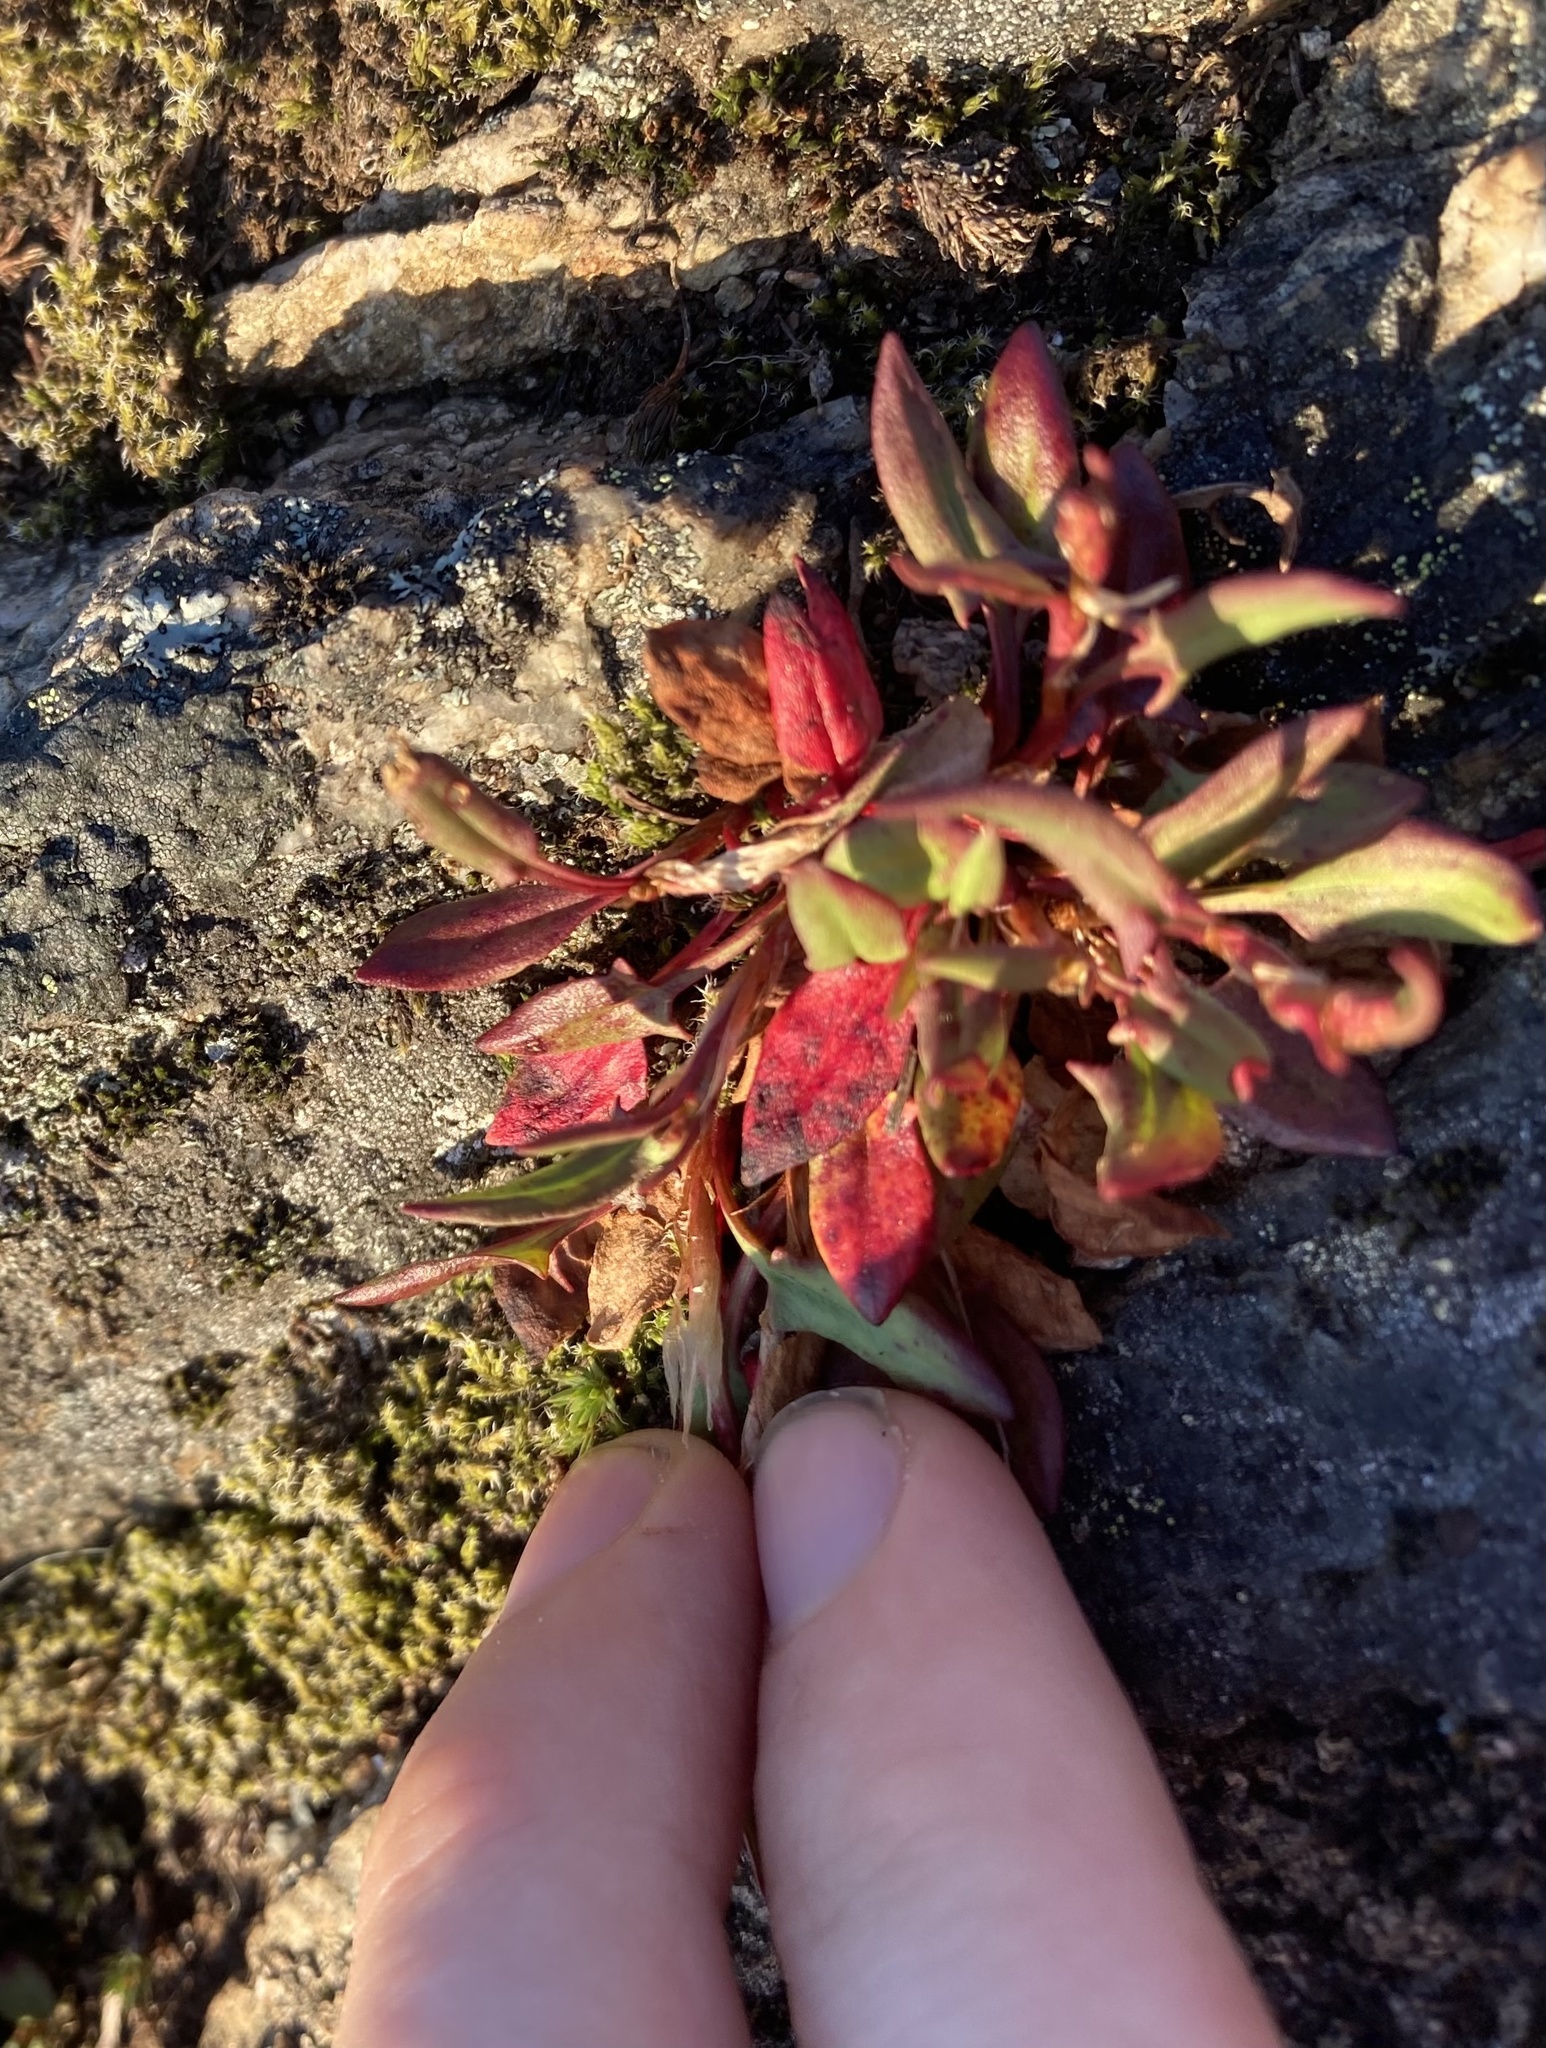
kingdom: Plantae
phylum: Tracheophyta
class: Magnoliopsida
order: Caryophyllales
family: Polygonaceae
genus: Rumex
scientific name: Rumex acetosella
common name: Common sheep sorrel
